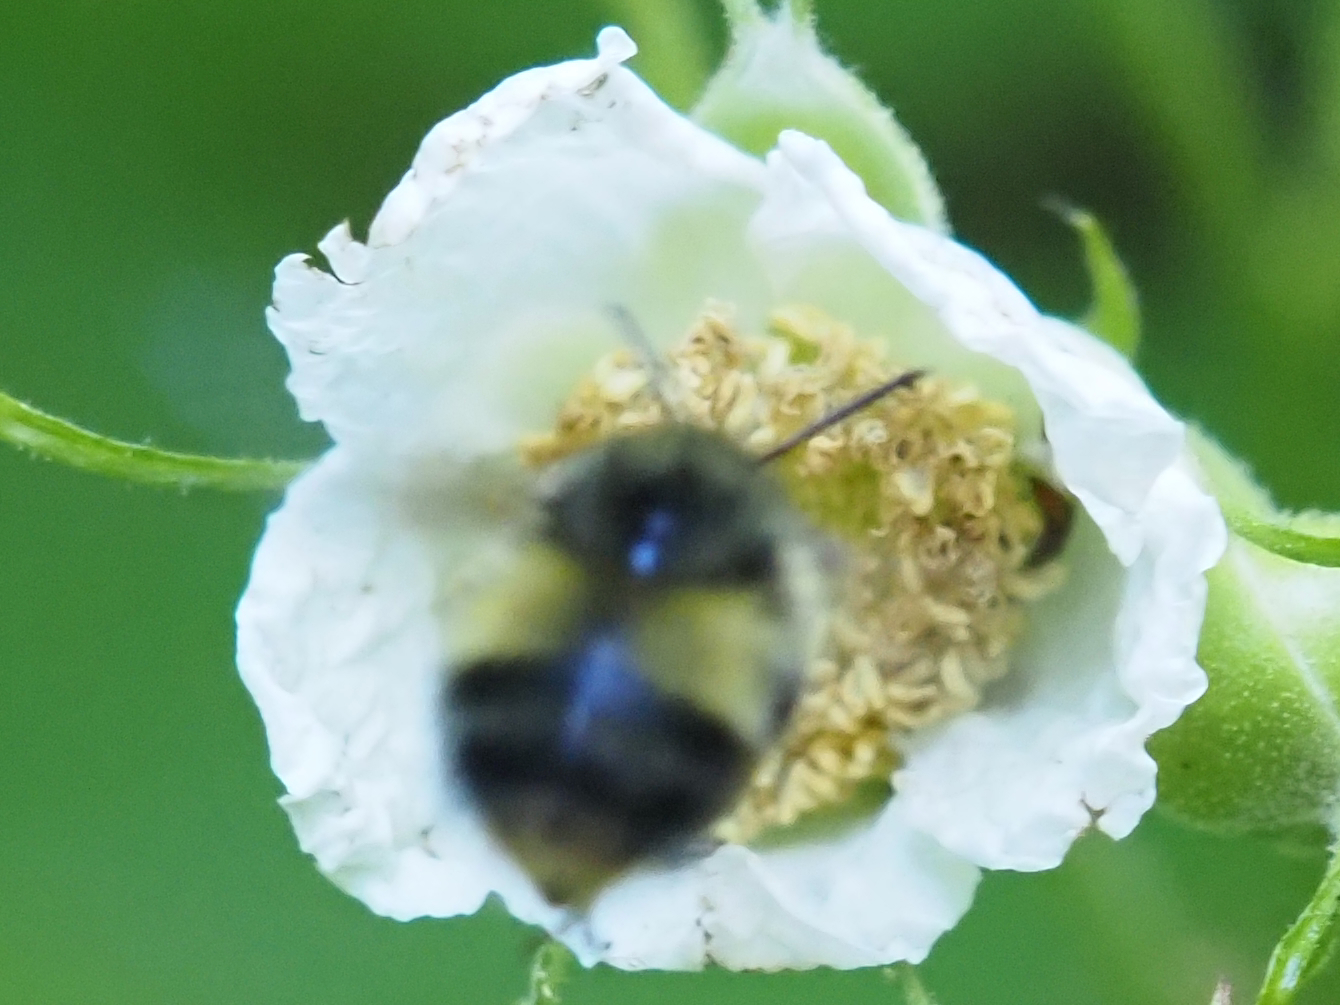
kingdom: Animalia
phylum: Arthropoda
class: Insecta
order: Hymenoptera
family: Apidae
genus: Bombus
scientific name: Bombus sitkensis
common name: Sitka bumble bee
